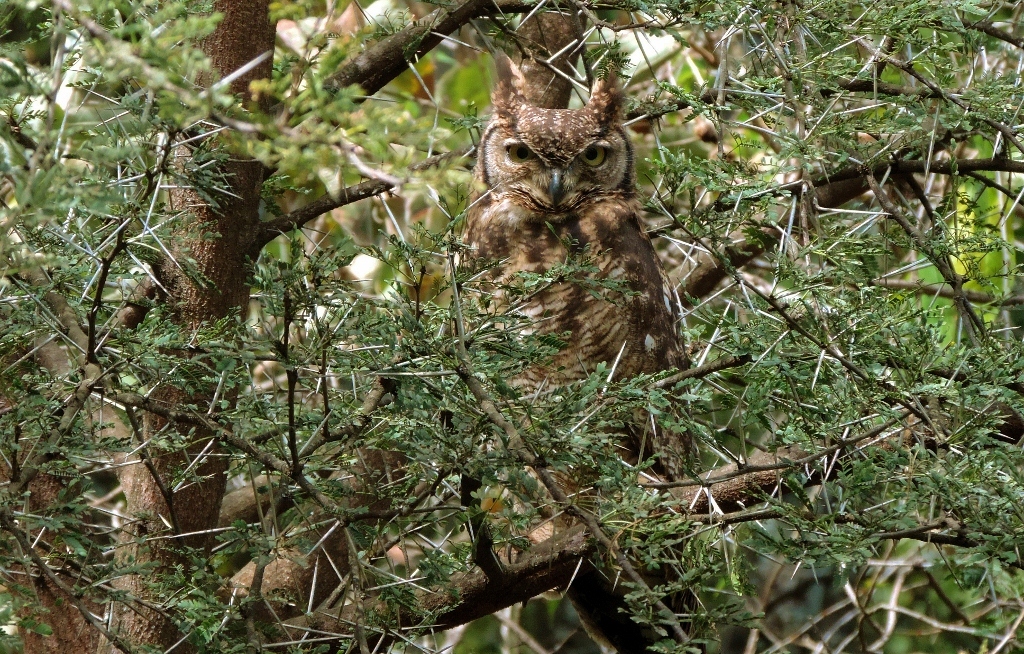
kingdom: Animalia
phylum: Chordata
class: Aves
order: Strigiformes
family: Strigidae
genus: Bubo
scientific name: Bubo africanus
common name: Spotted eagle-owl
